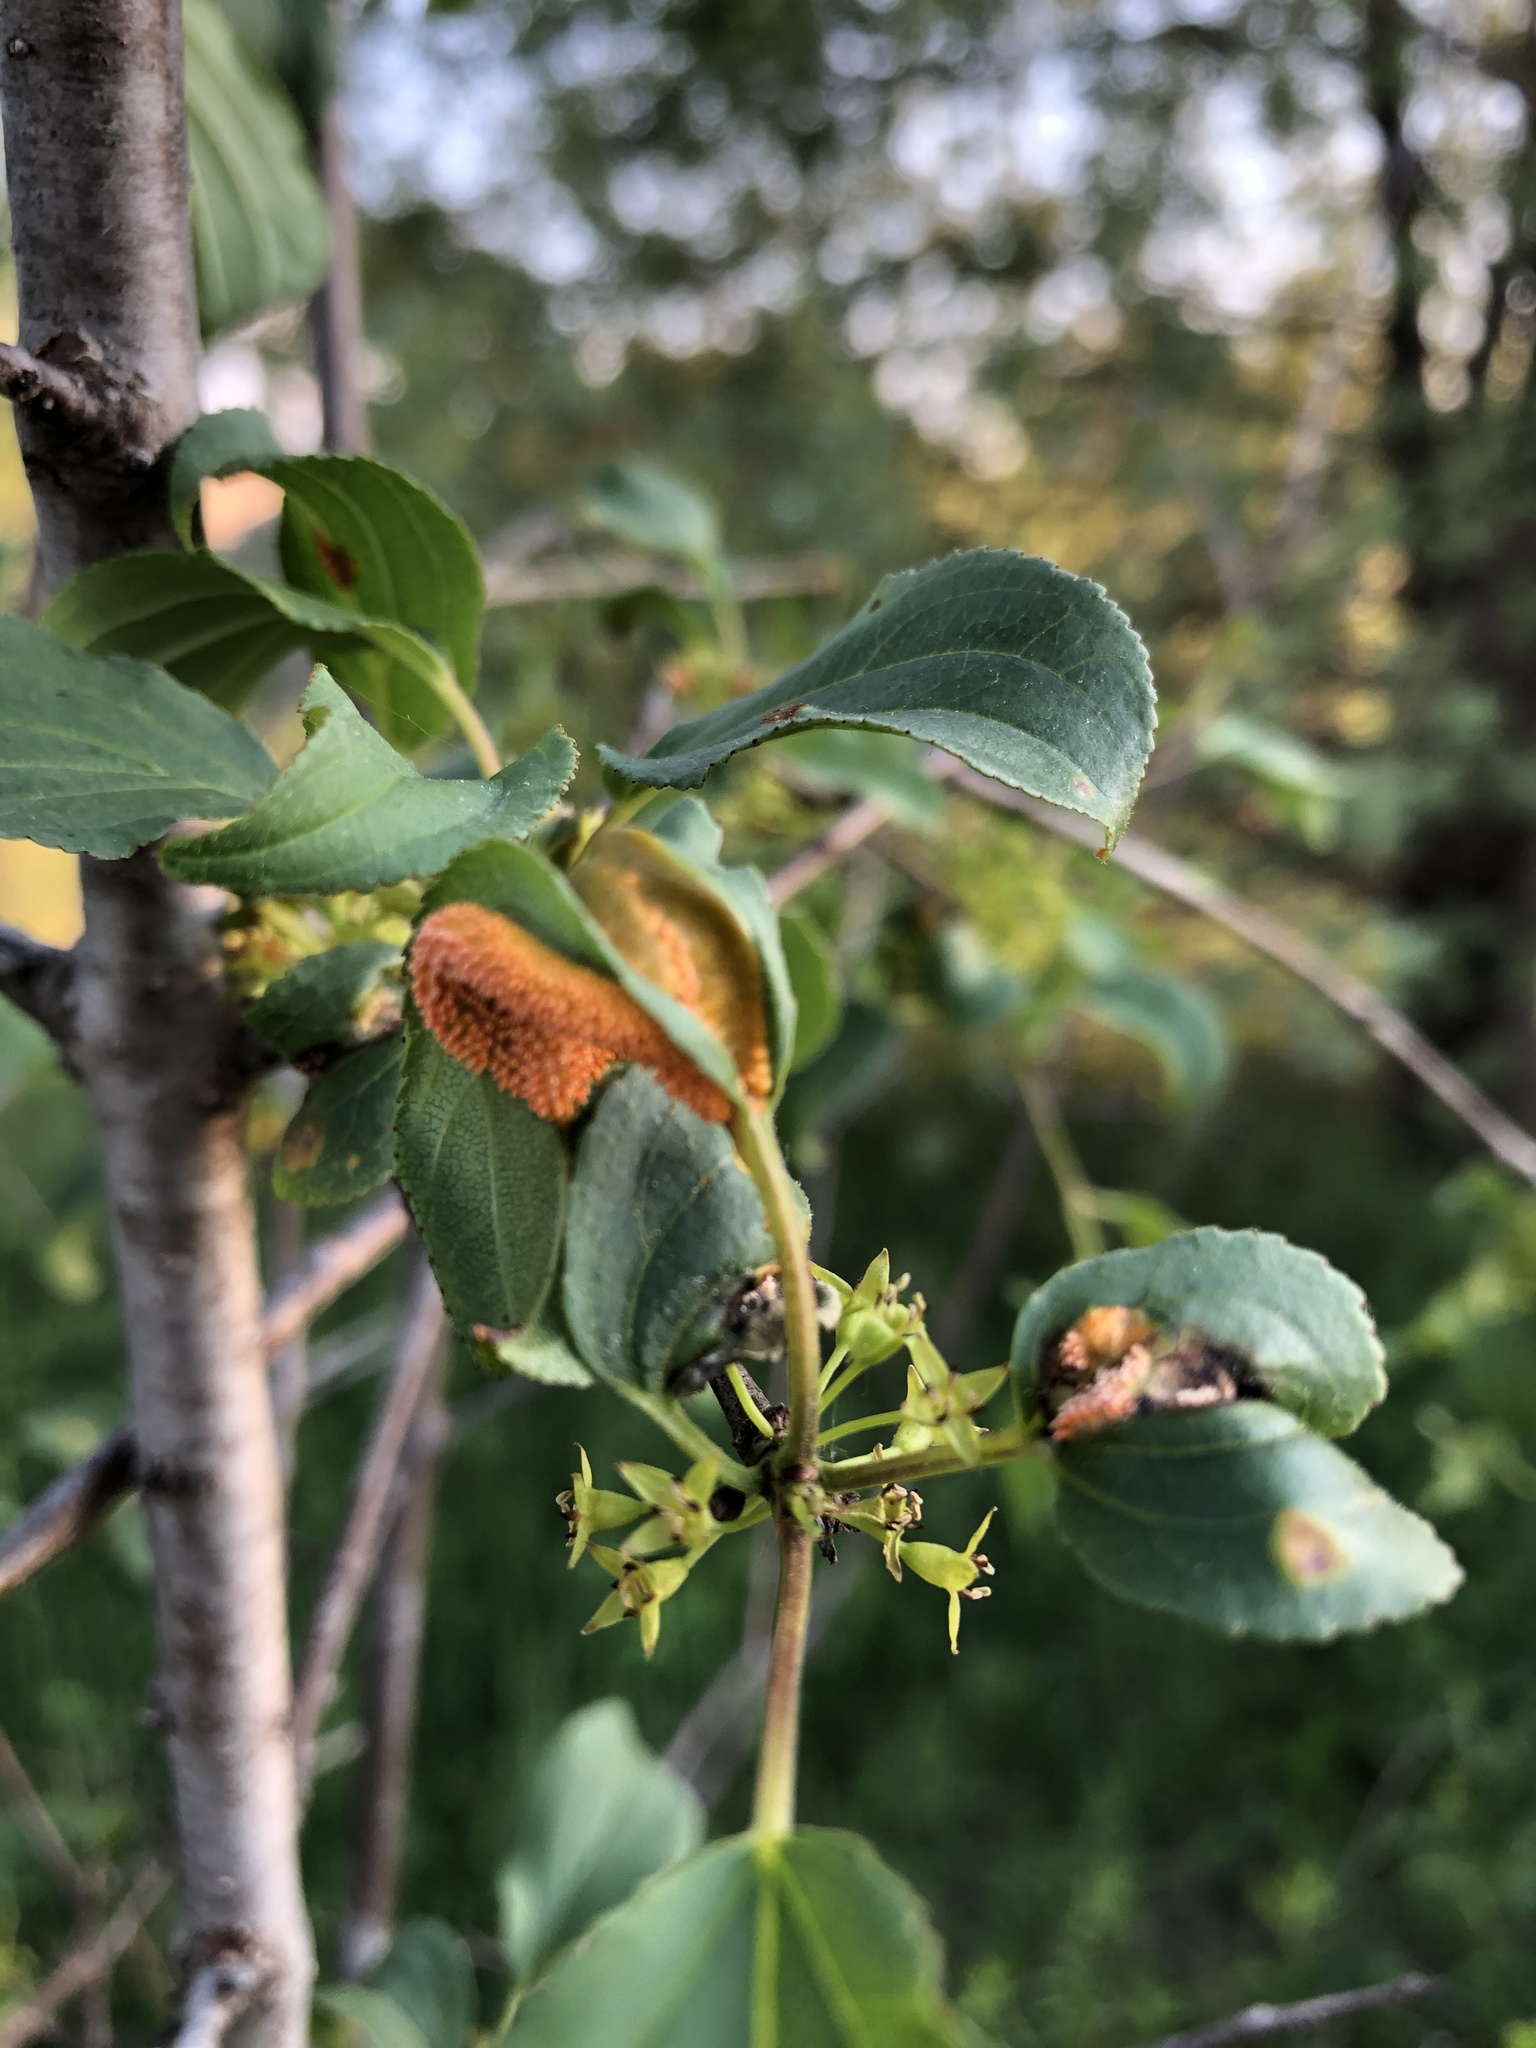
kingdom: Fungi
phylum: Basidiomycota
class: Pucciniomycetes
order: Pucciniales
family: Pucciniaceae
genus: Puccinia
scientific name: Puccinia coronata
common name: Crown rust
